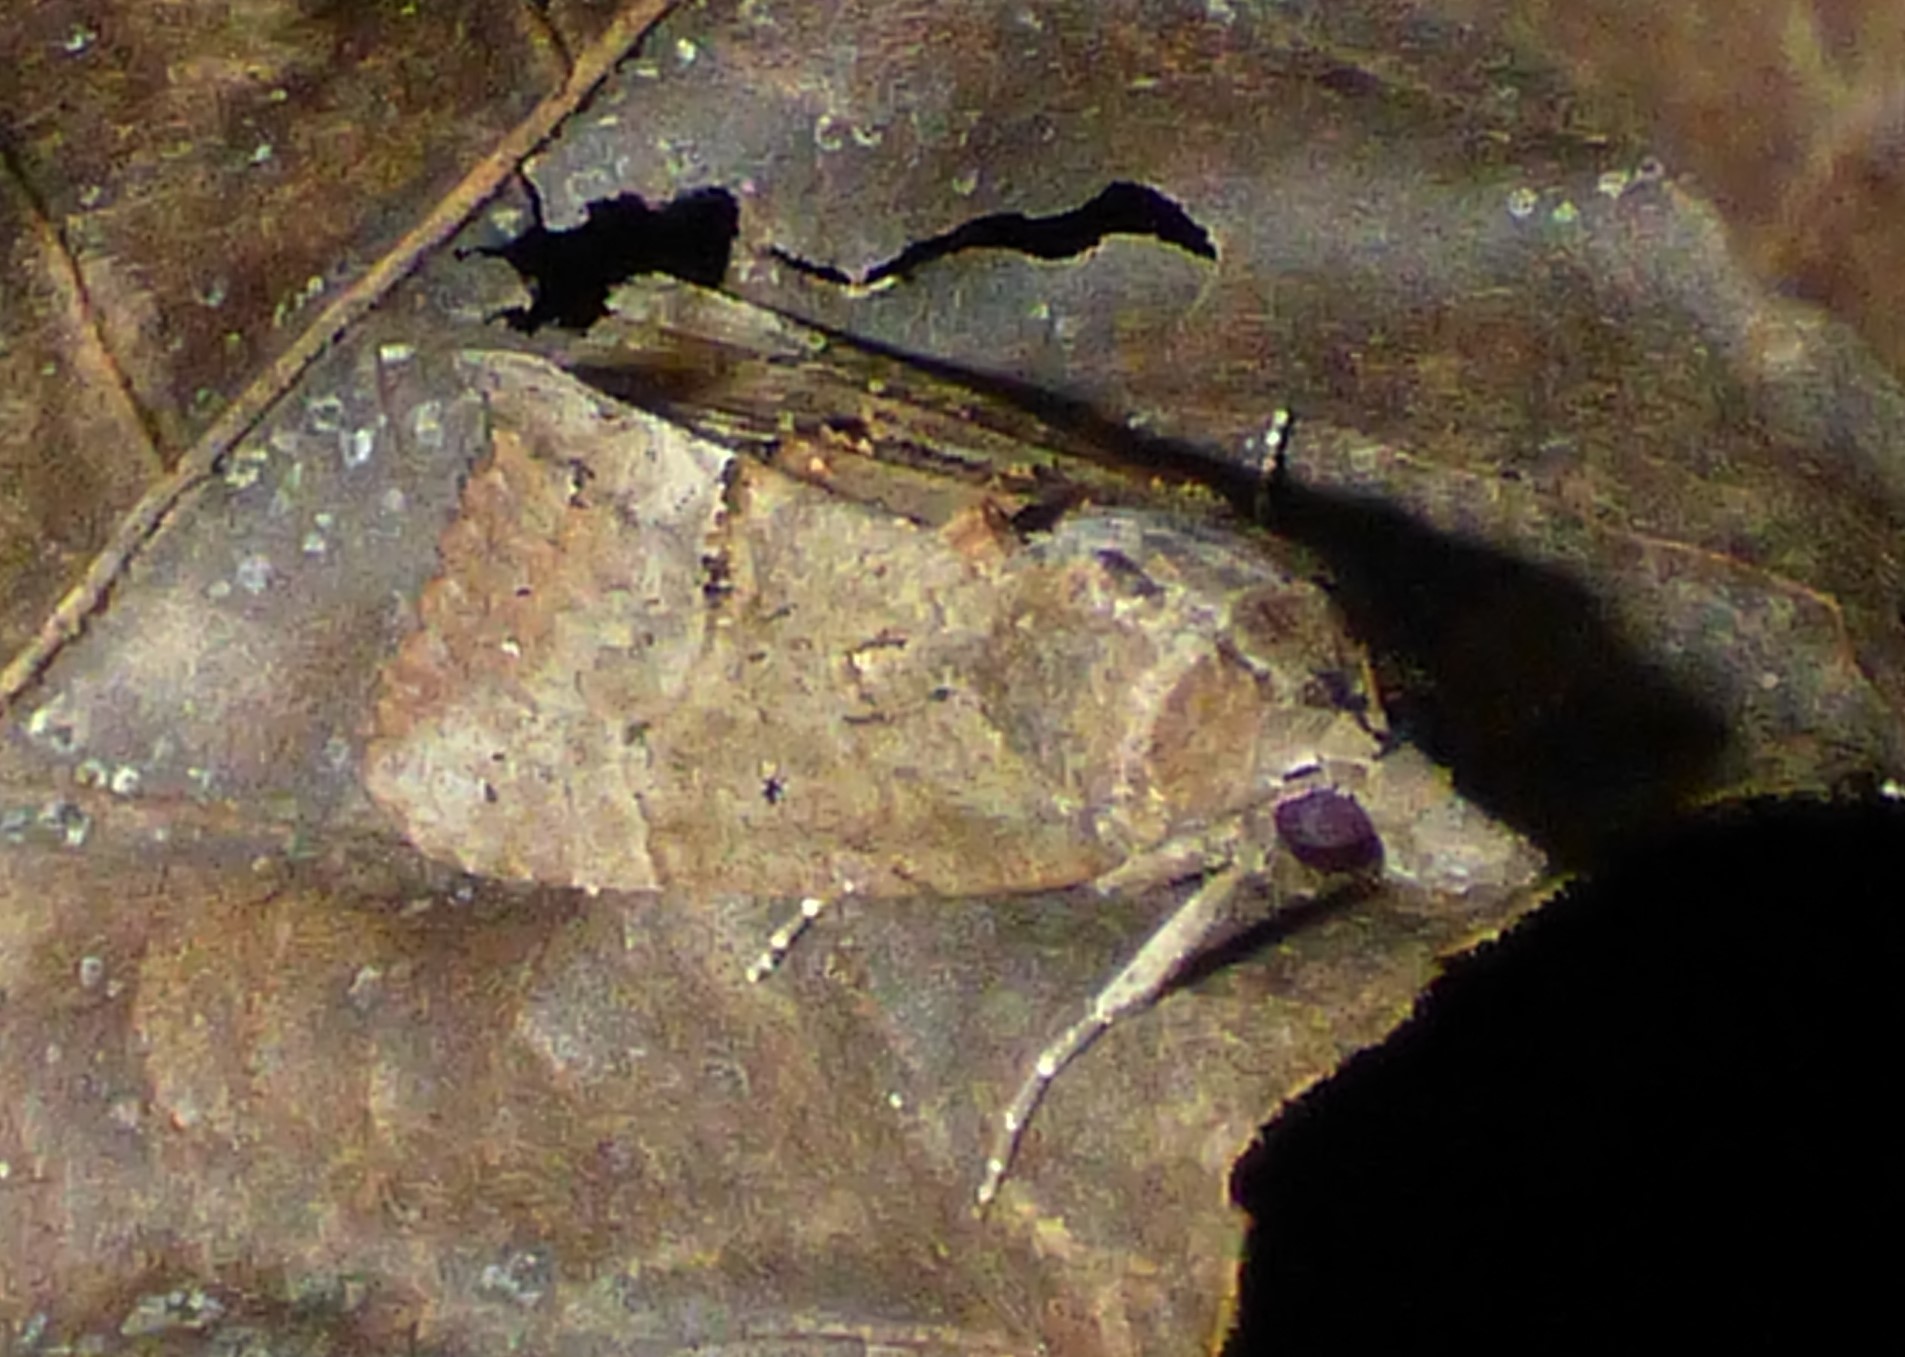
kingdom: Animalia
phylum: Arthropoda
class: Insecta
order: Lepidoptera
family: Erebidae
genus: Hypena
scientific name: Hypena scabra
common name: Green cloverworm
